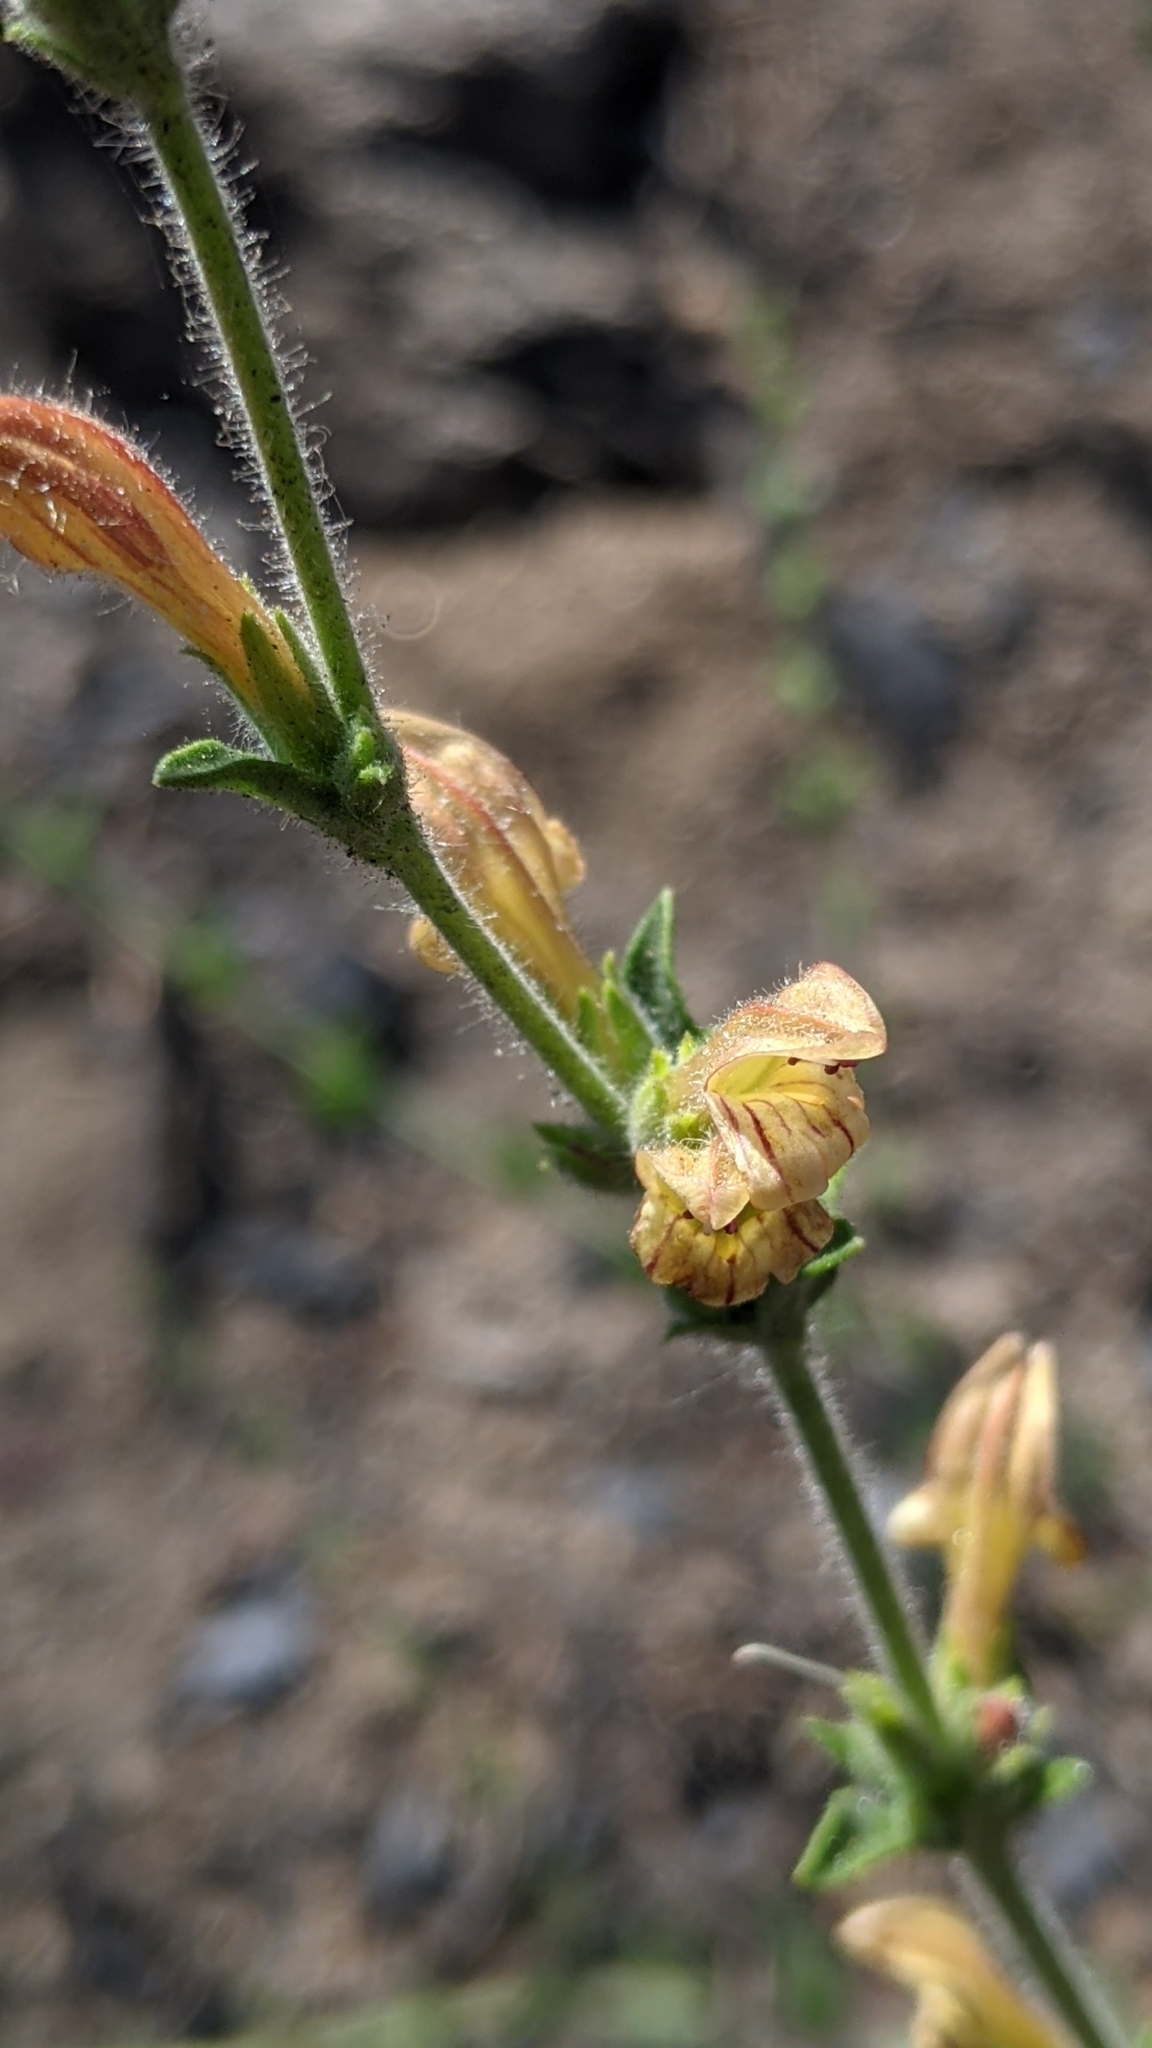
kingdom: Plantae
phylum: Tracheophyta
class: Magnoliopsida
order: Lamiales
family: Plantaginaceae
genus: Keckiella
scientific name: Keckiella rothrockii
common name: Rothrock's keckiella
